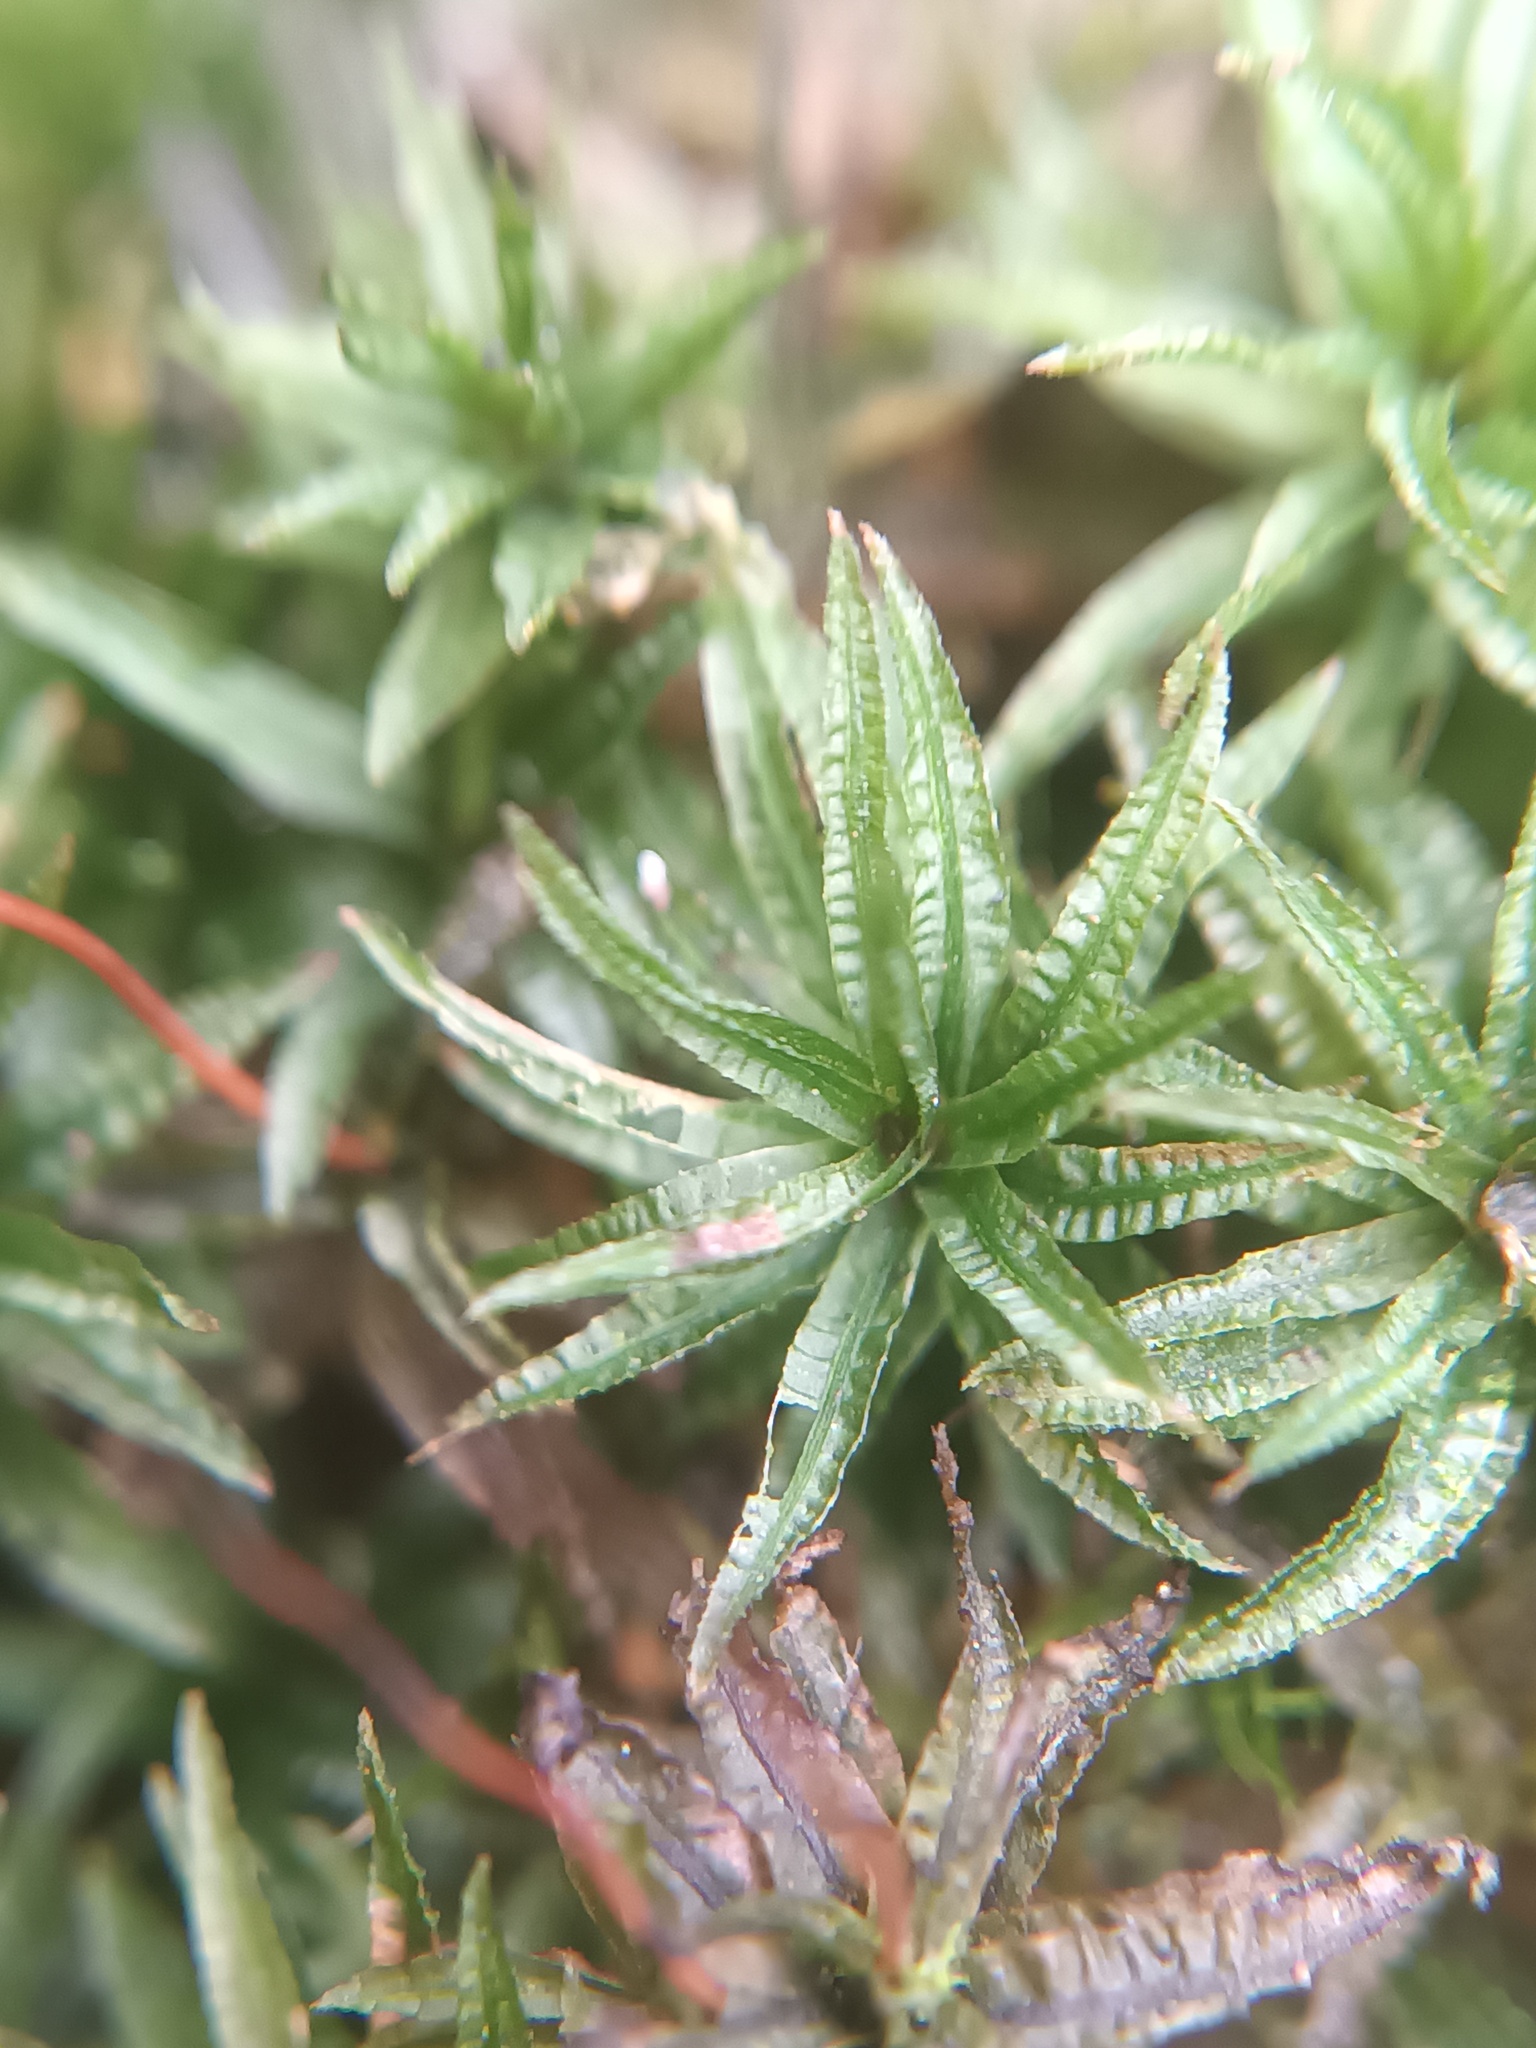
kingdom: Plantae
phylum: Bryophyta
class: Polytrichopsida
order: Polytrichales
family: Polytrichaceae
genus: Atrichum
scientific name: Atrichum undulatum
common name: Common smoothcap
